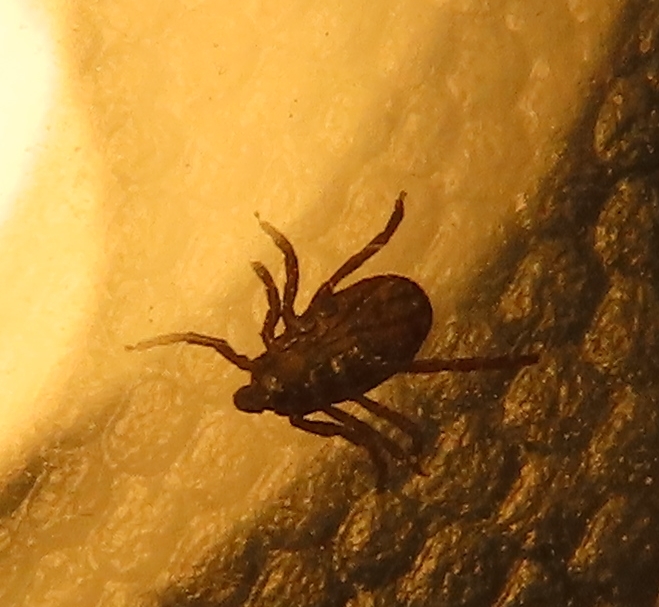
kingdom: Animalia
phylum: Arthropoda
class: Arachnida
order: Ixodida
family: Ixodidae
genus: Dermacentor
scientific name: Dermacentor variabilis
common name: American dog tick
